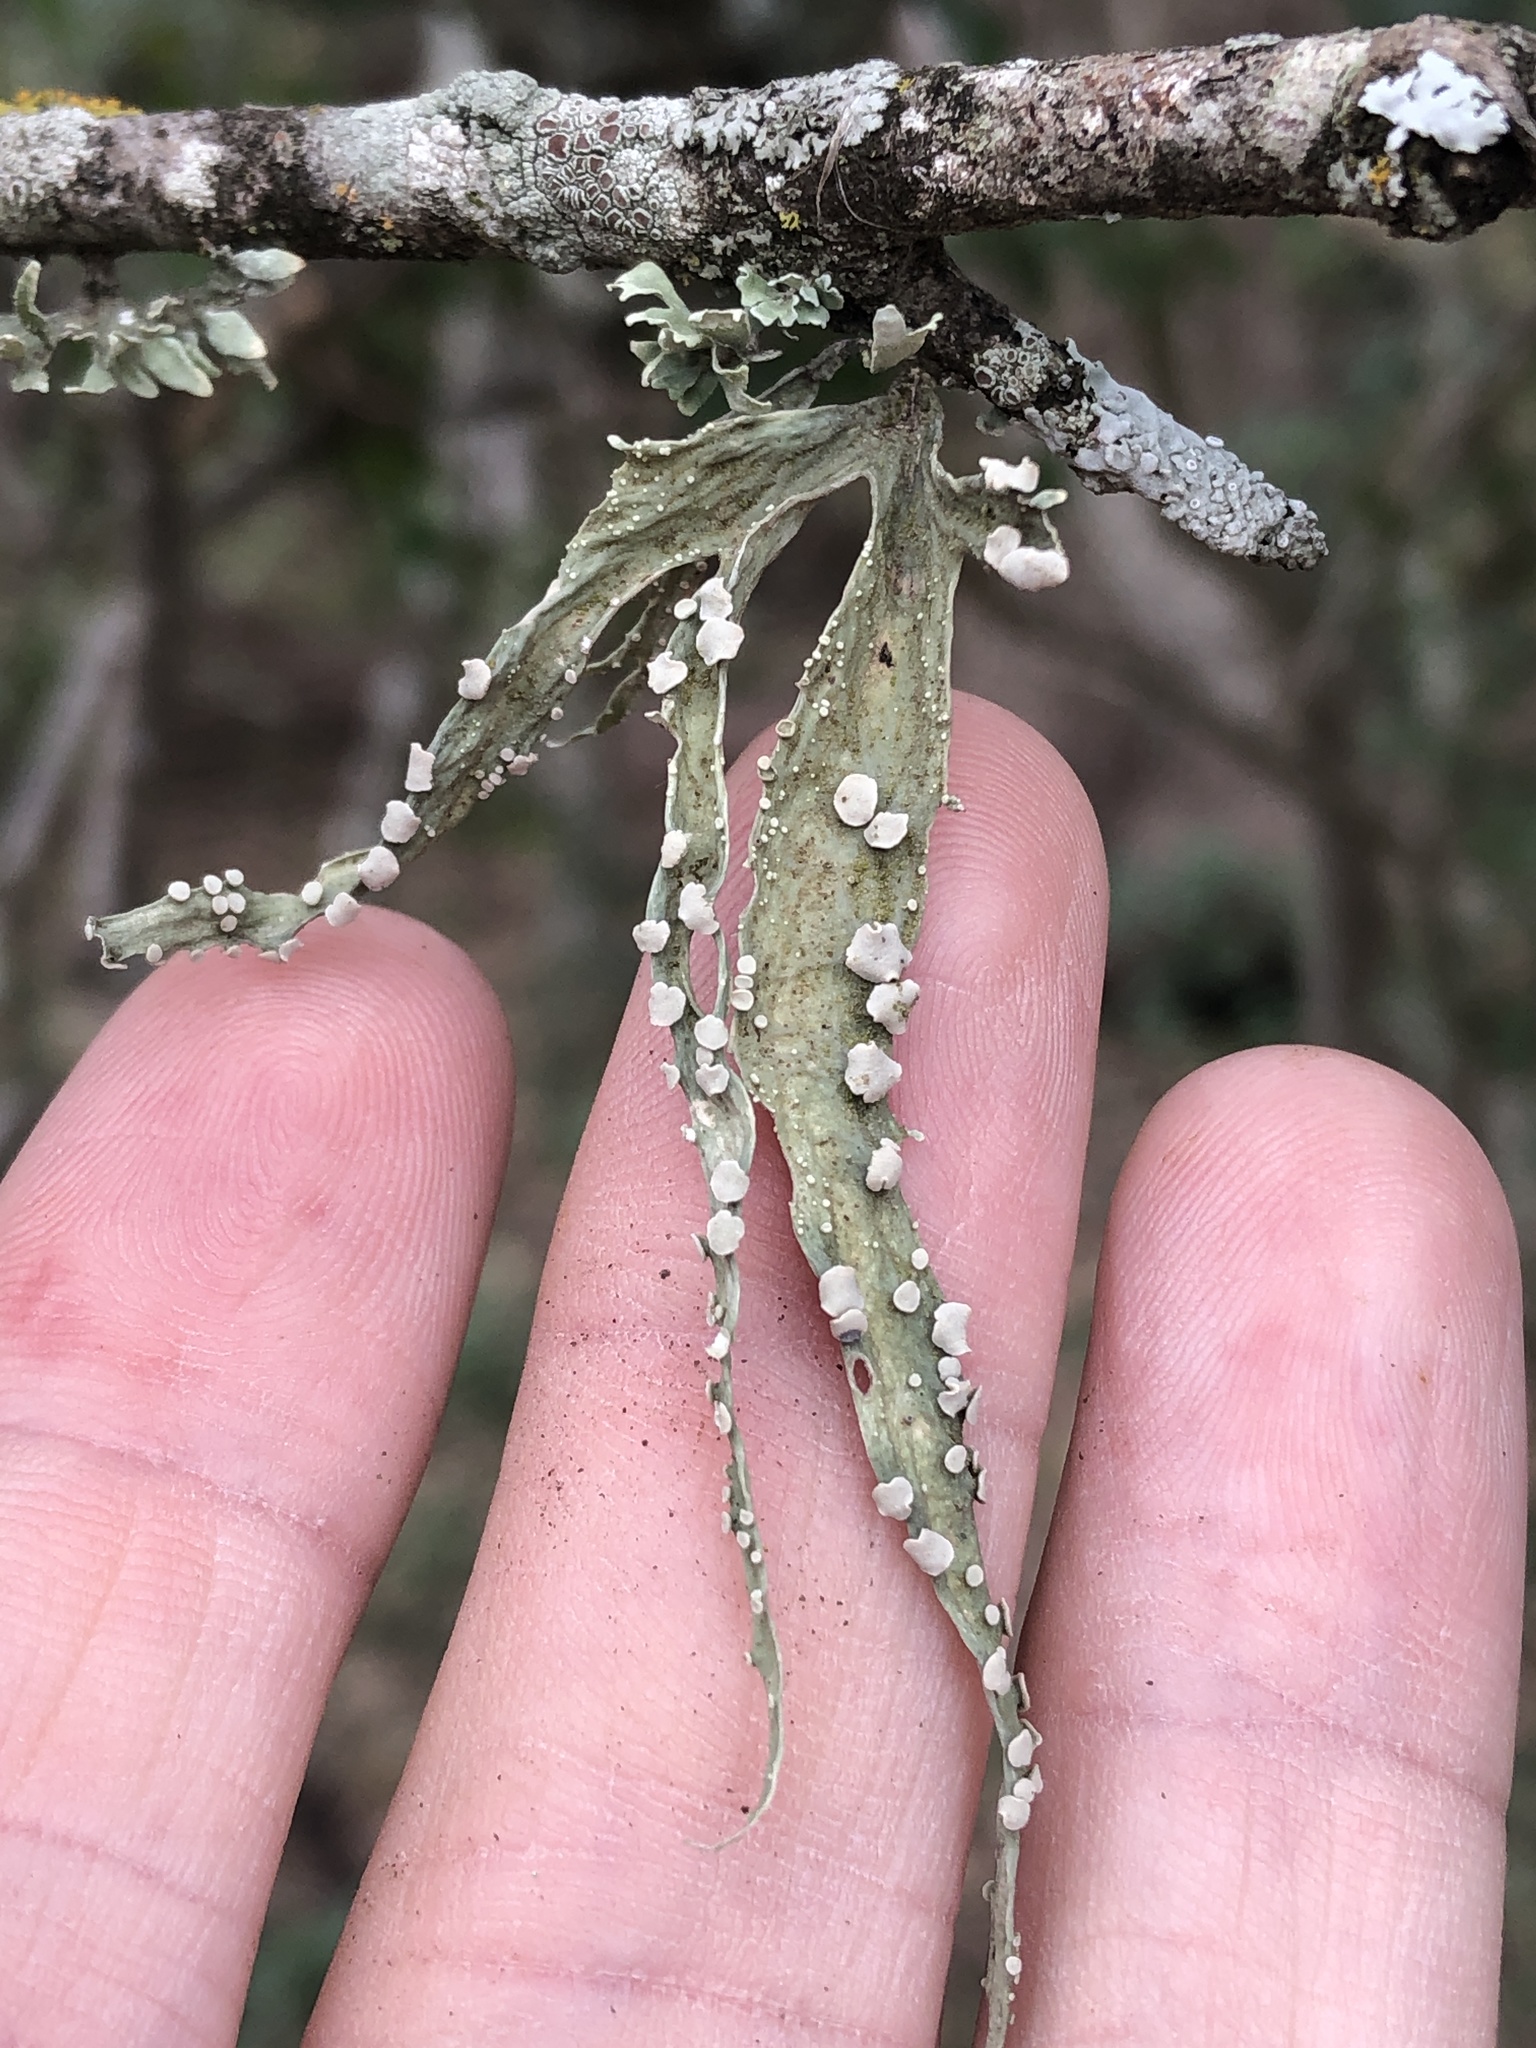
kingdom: Fungi
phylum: Ascomycota
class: Lecanoromycetes
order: Lecanorales
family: Ramalinaceae
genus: Ramalina
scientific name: Ramalina celastri
